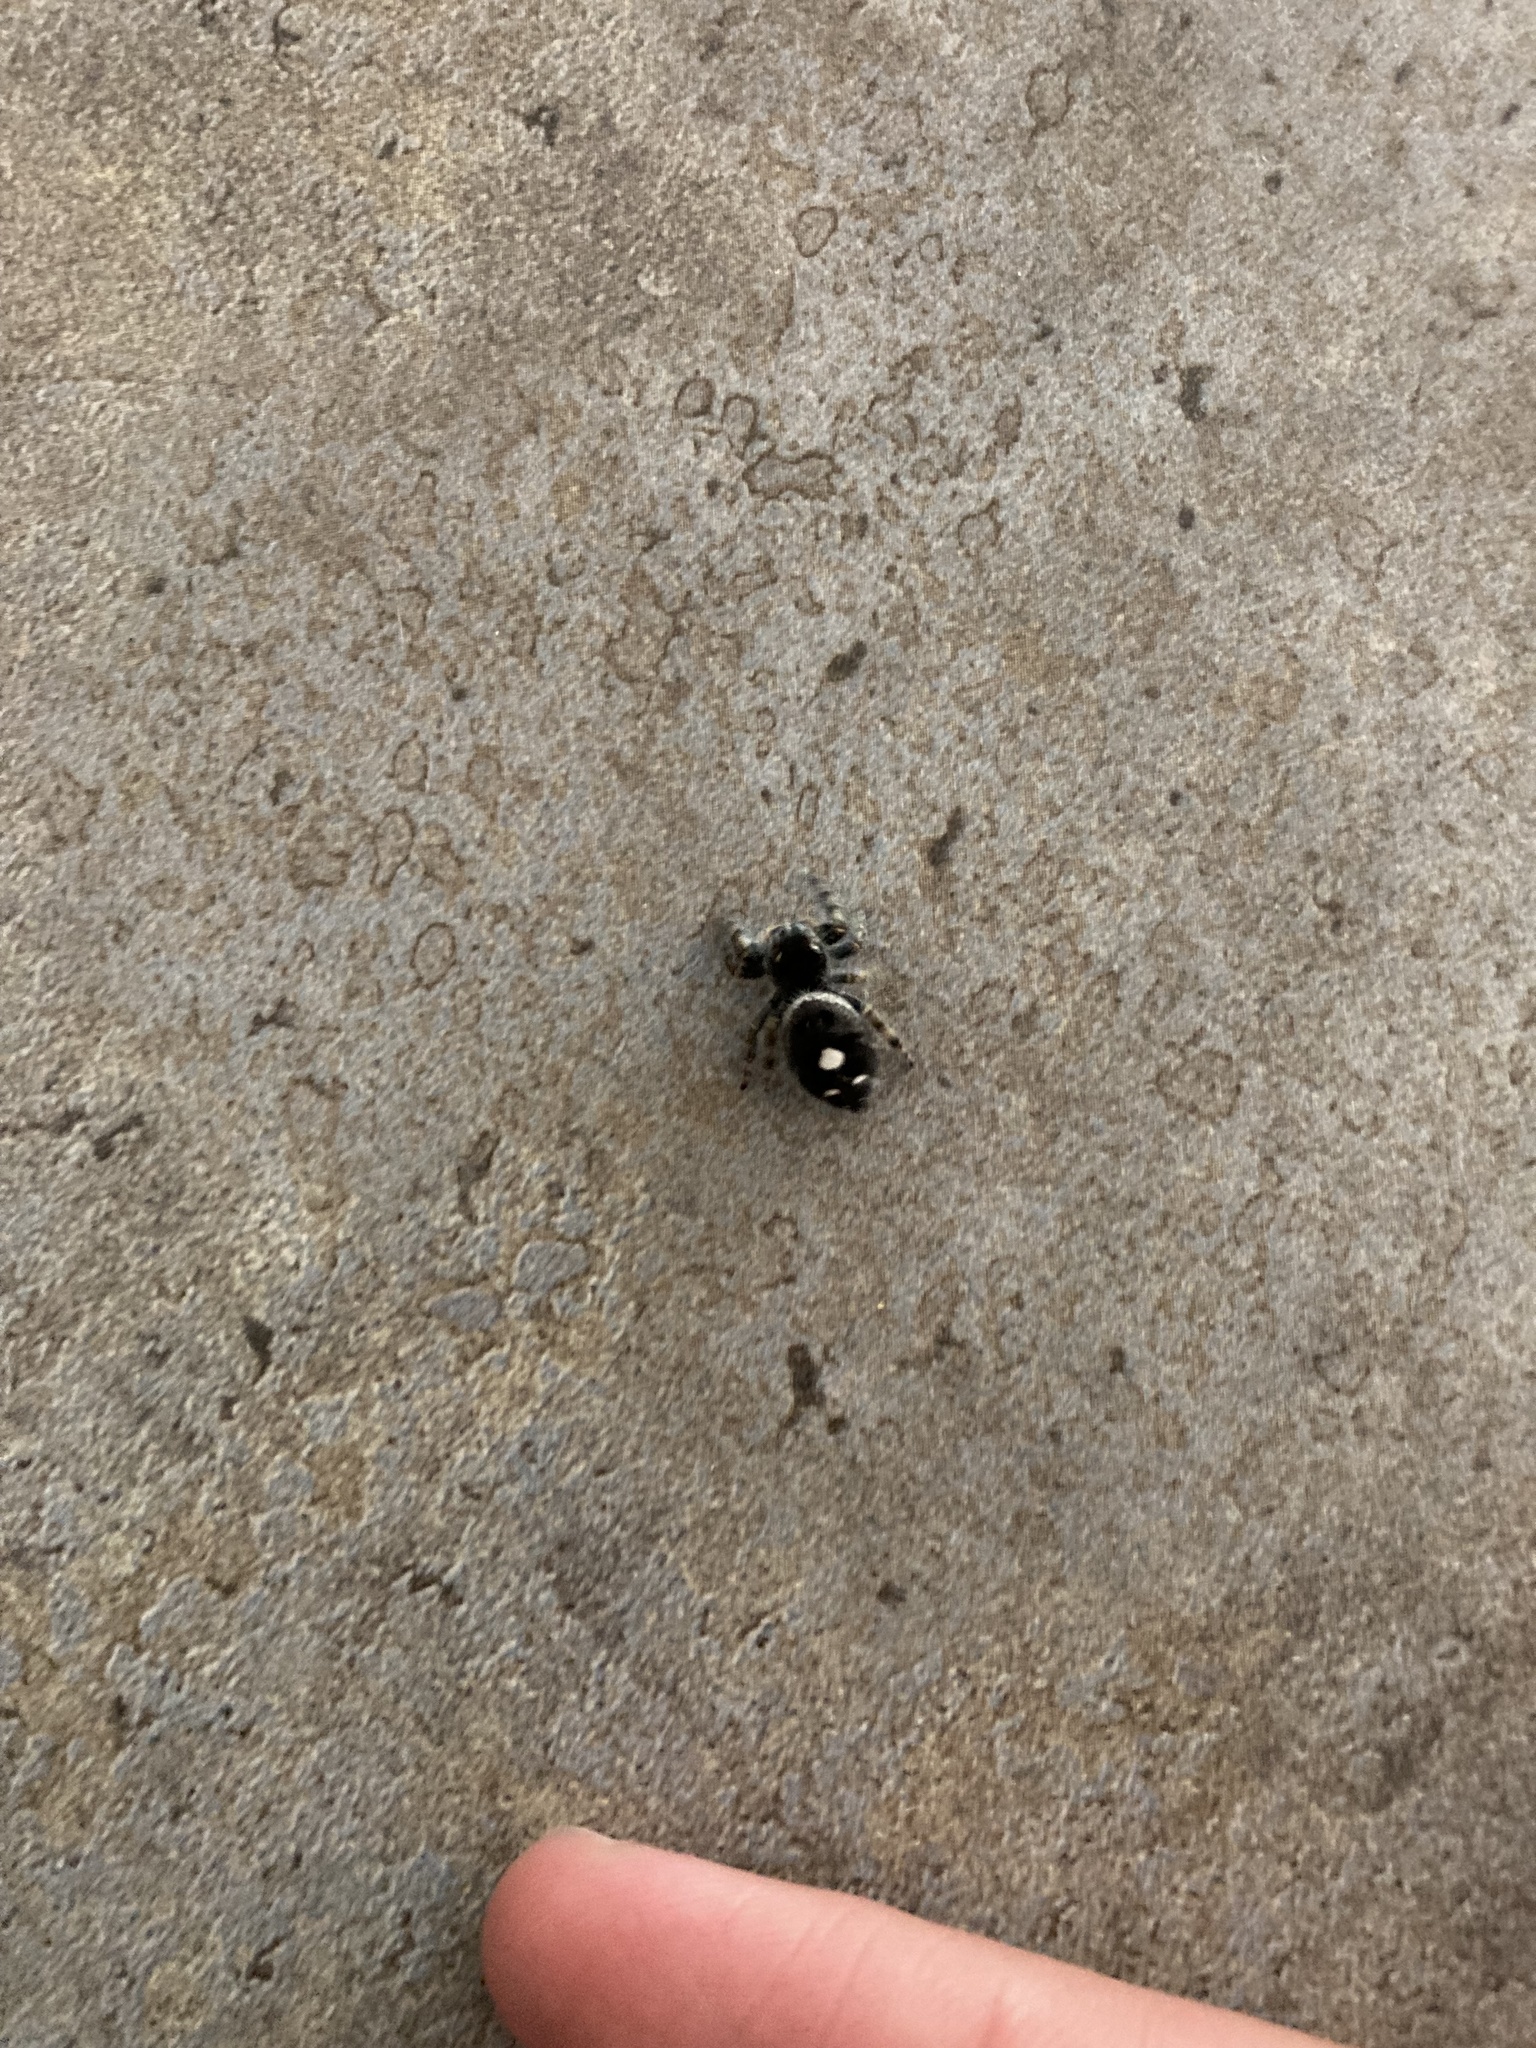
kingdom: Animalia
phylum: Arthropoda
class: Arachnida
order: Araneae
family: Salticidae
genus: Phidippus
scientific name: Phidippus audax
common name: Bold jumper
